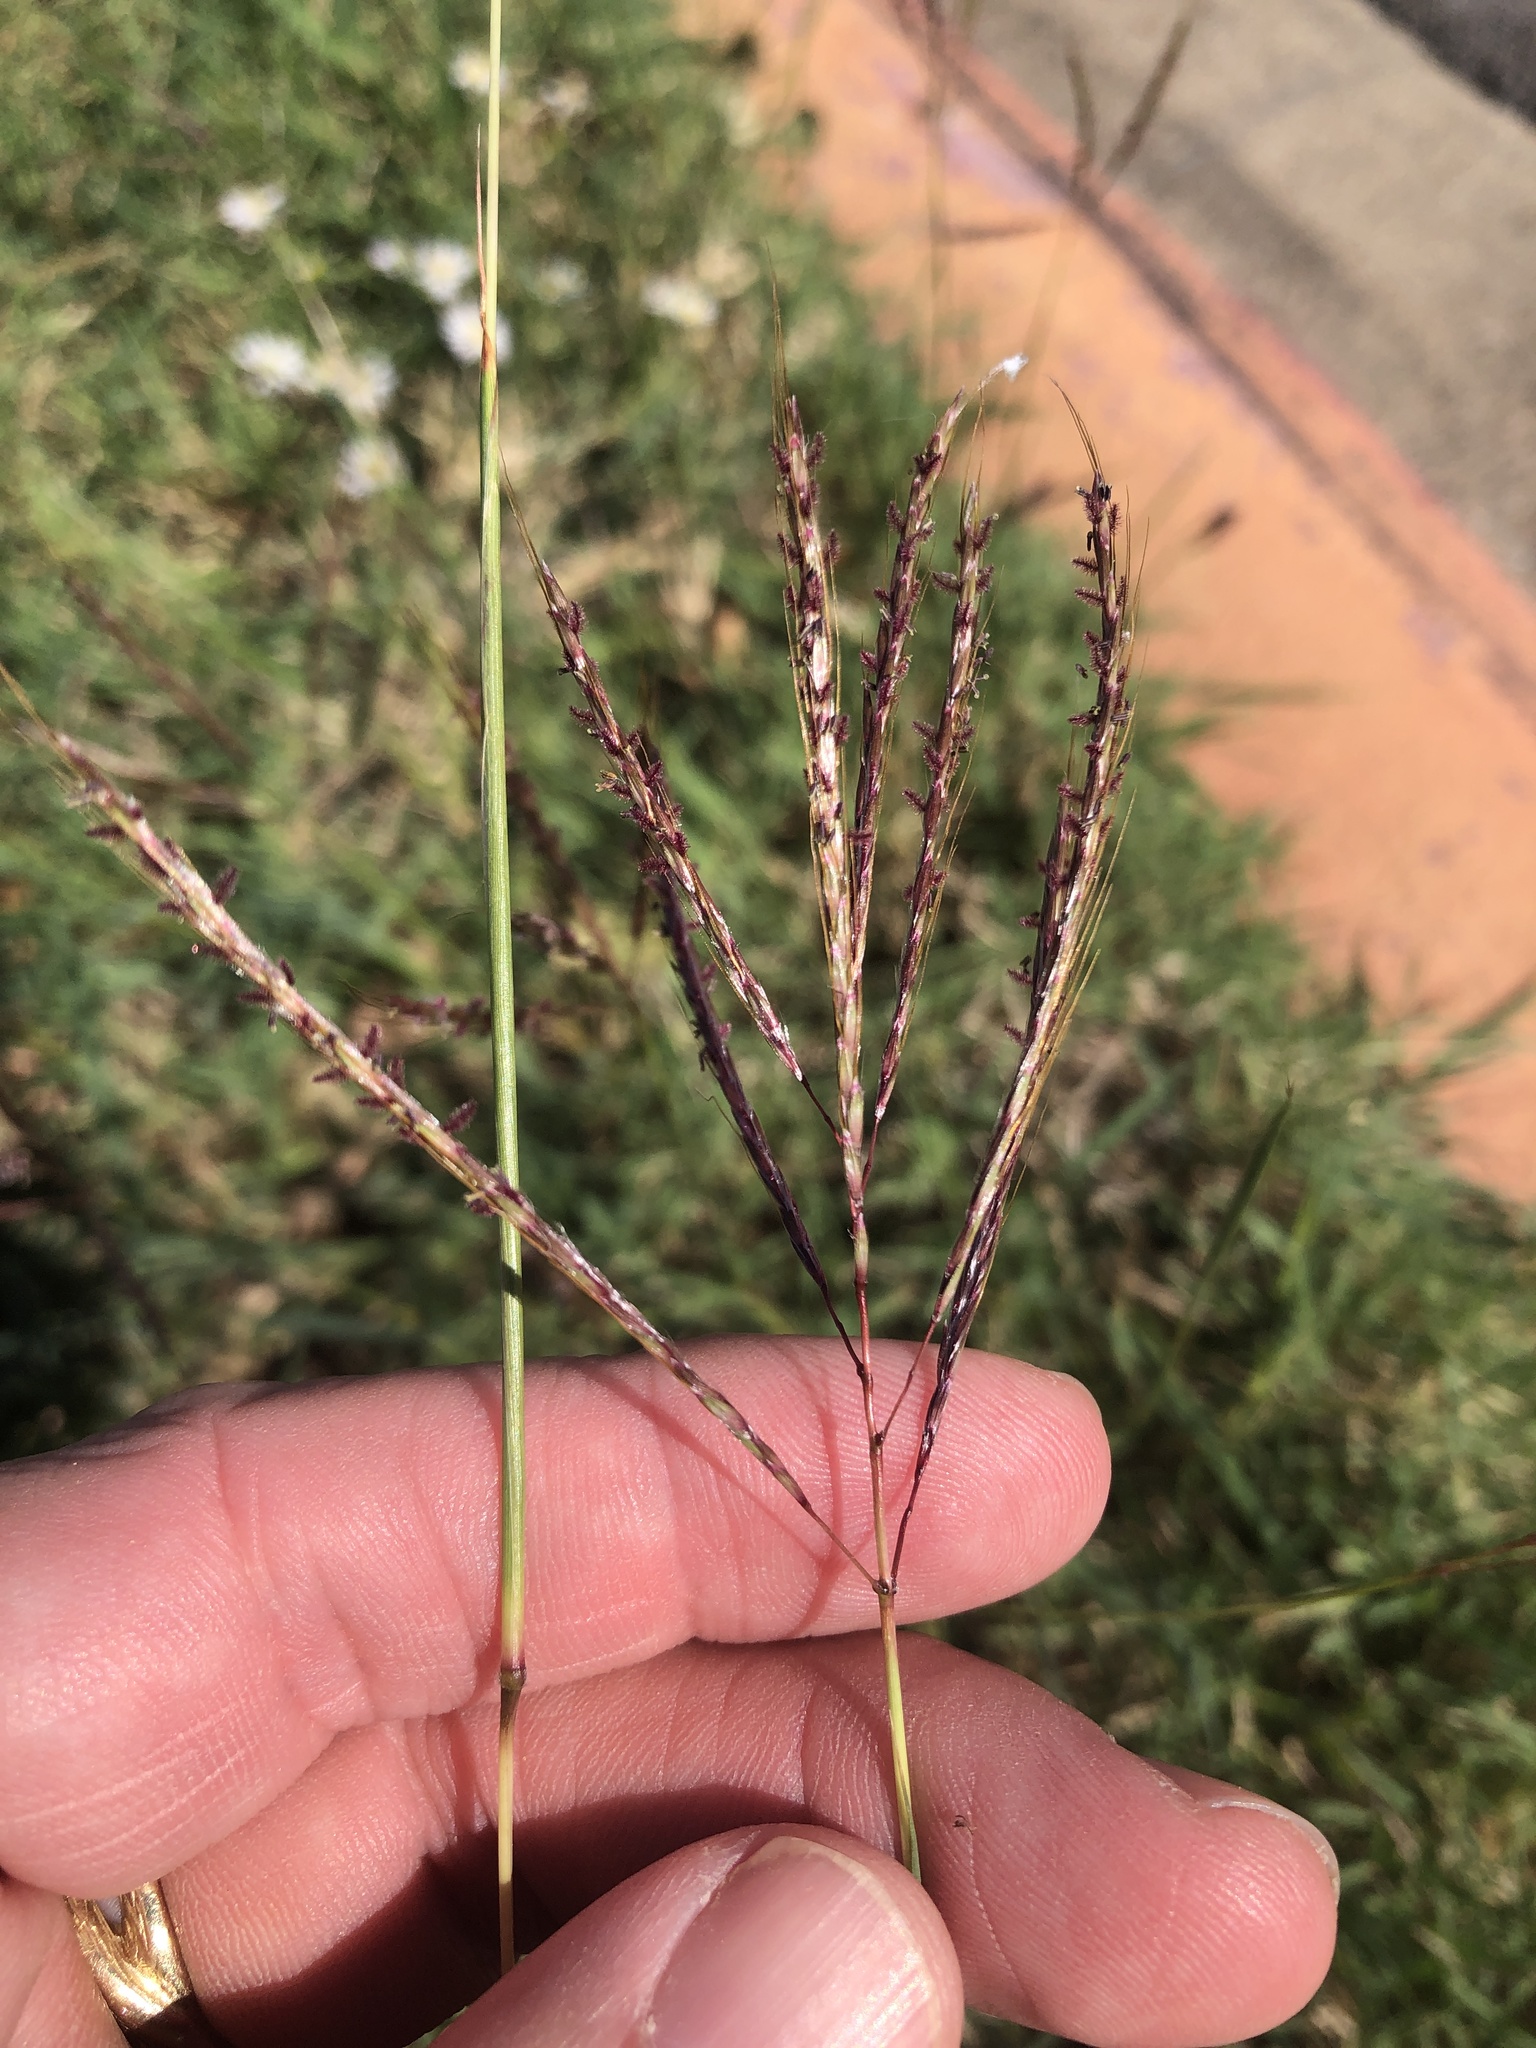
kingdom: Plantae
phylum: Tracheophyta
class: Liliopsida
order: Poales
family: Poaceae
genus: Bothriochloa
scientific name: Bothriochloa ischaemum
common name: Yellow bluestem
